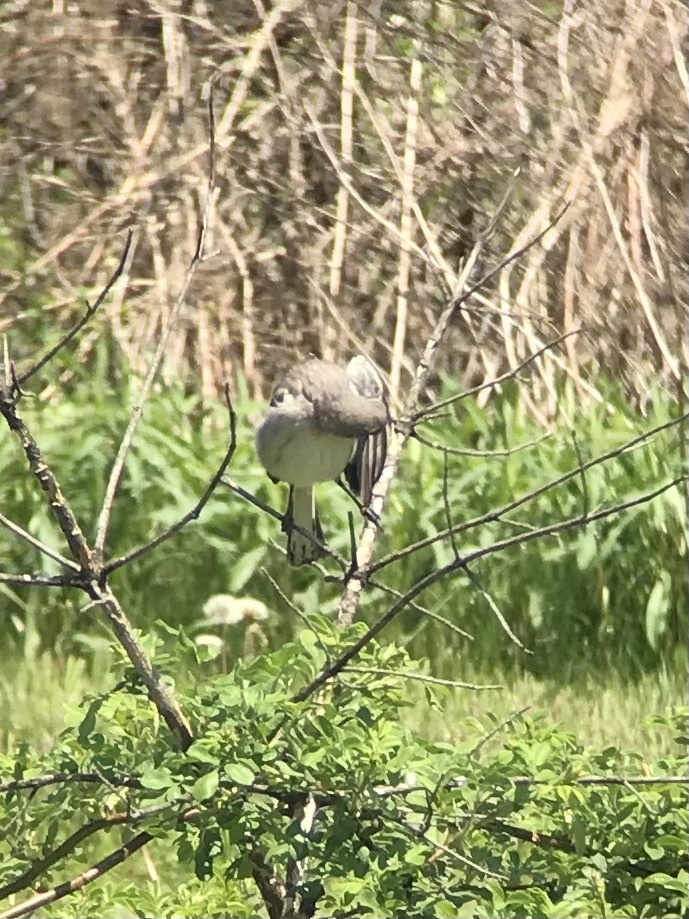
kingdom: Animalia
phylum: Chordata
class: Aves
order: Passeriformes
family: Mimidae
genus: Mimus
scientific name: Mimus polyglottos
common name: Northern mockingbird
